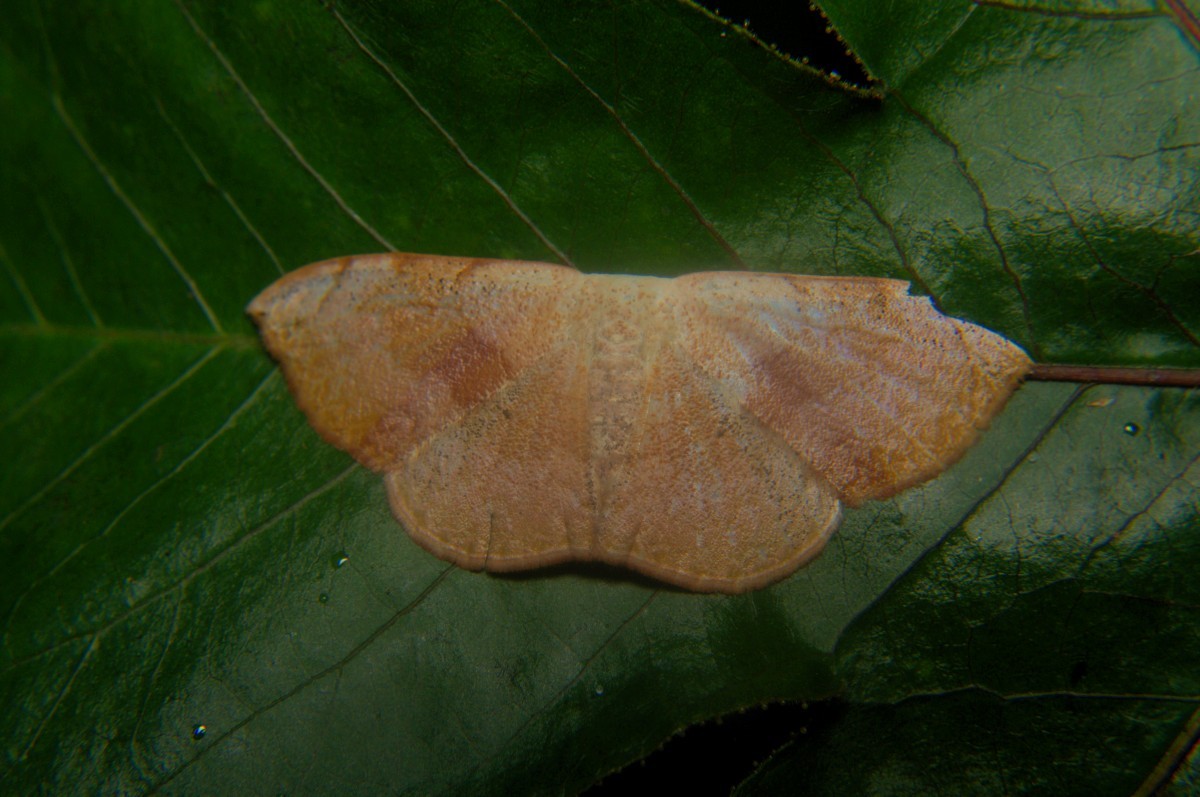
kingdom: Animalia
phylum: Arthropoda
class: Insecta
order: Lepidoptera
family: Geometridae
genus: Somatina
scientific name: Somatina purpurascens
